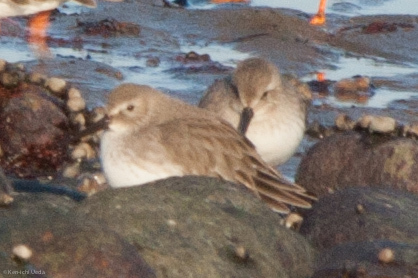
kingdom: Animalia
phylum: Chordata
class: Aves
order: Charadriiformes
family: Scolopacidae
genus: Calidris
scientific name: Calidris alpina
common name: Dunlin
